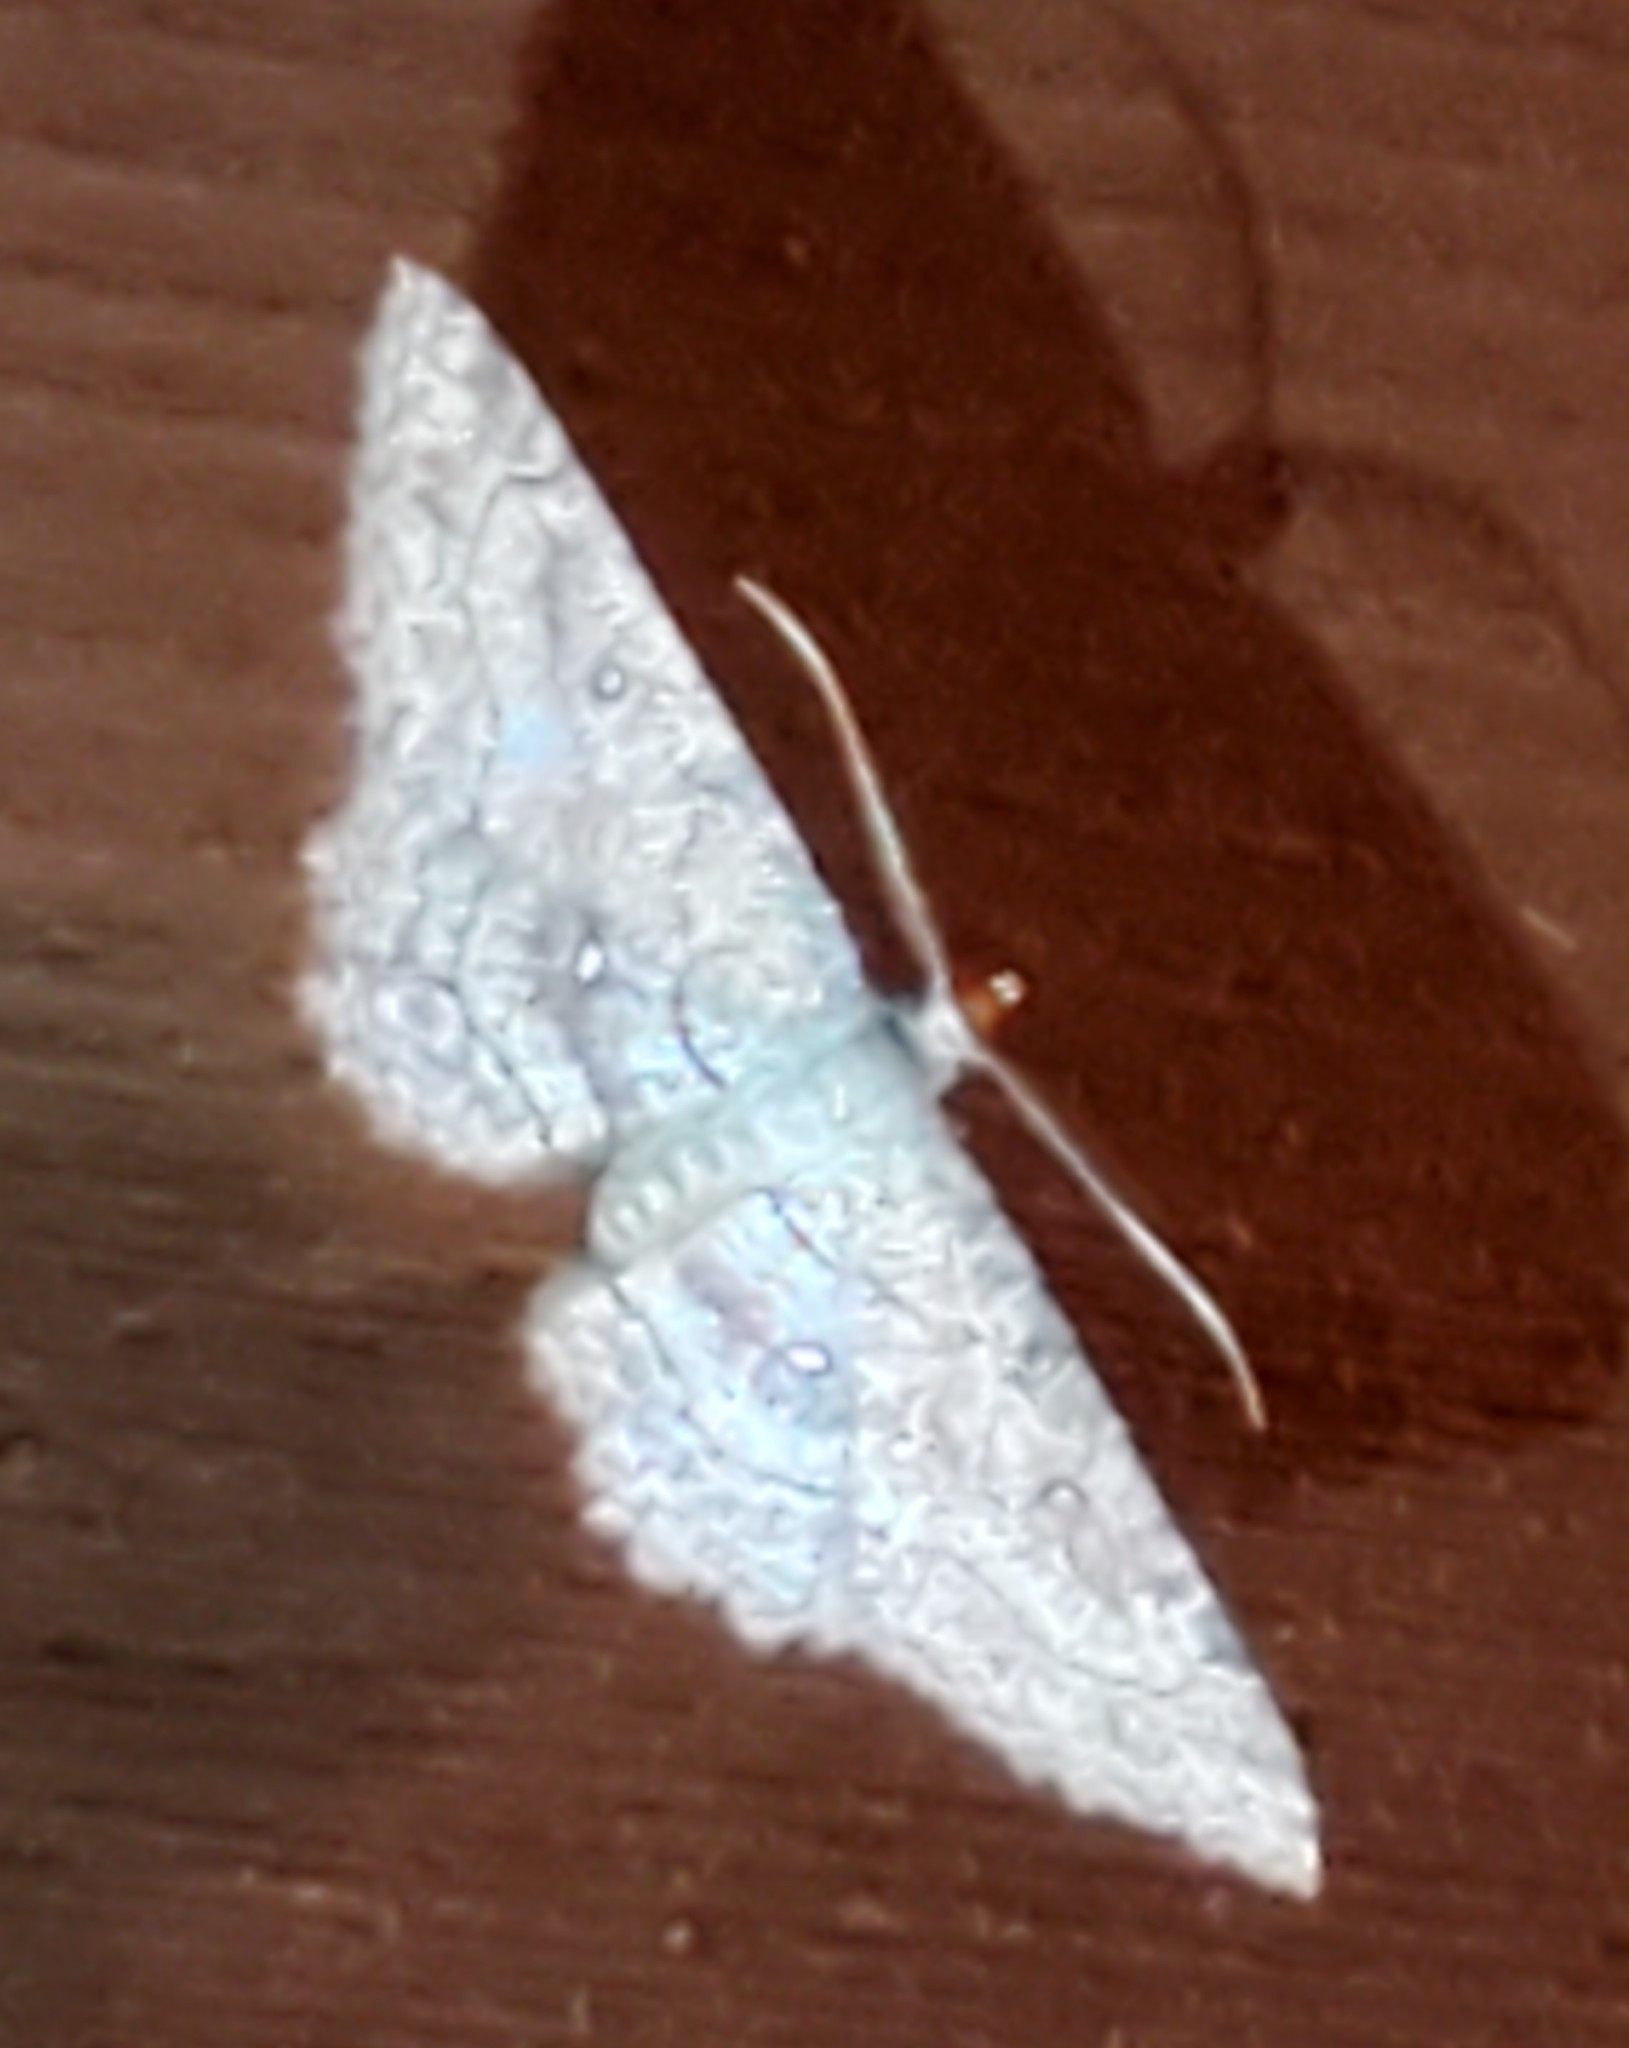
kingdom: Animalia
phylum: Arthropoda
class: Insecta
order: Lepidoptera
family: Geometridae
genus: Cyclophora
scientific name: Cyclophora nanaria
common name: Cankerworm
